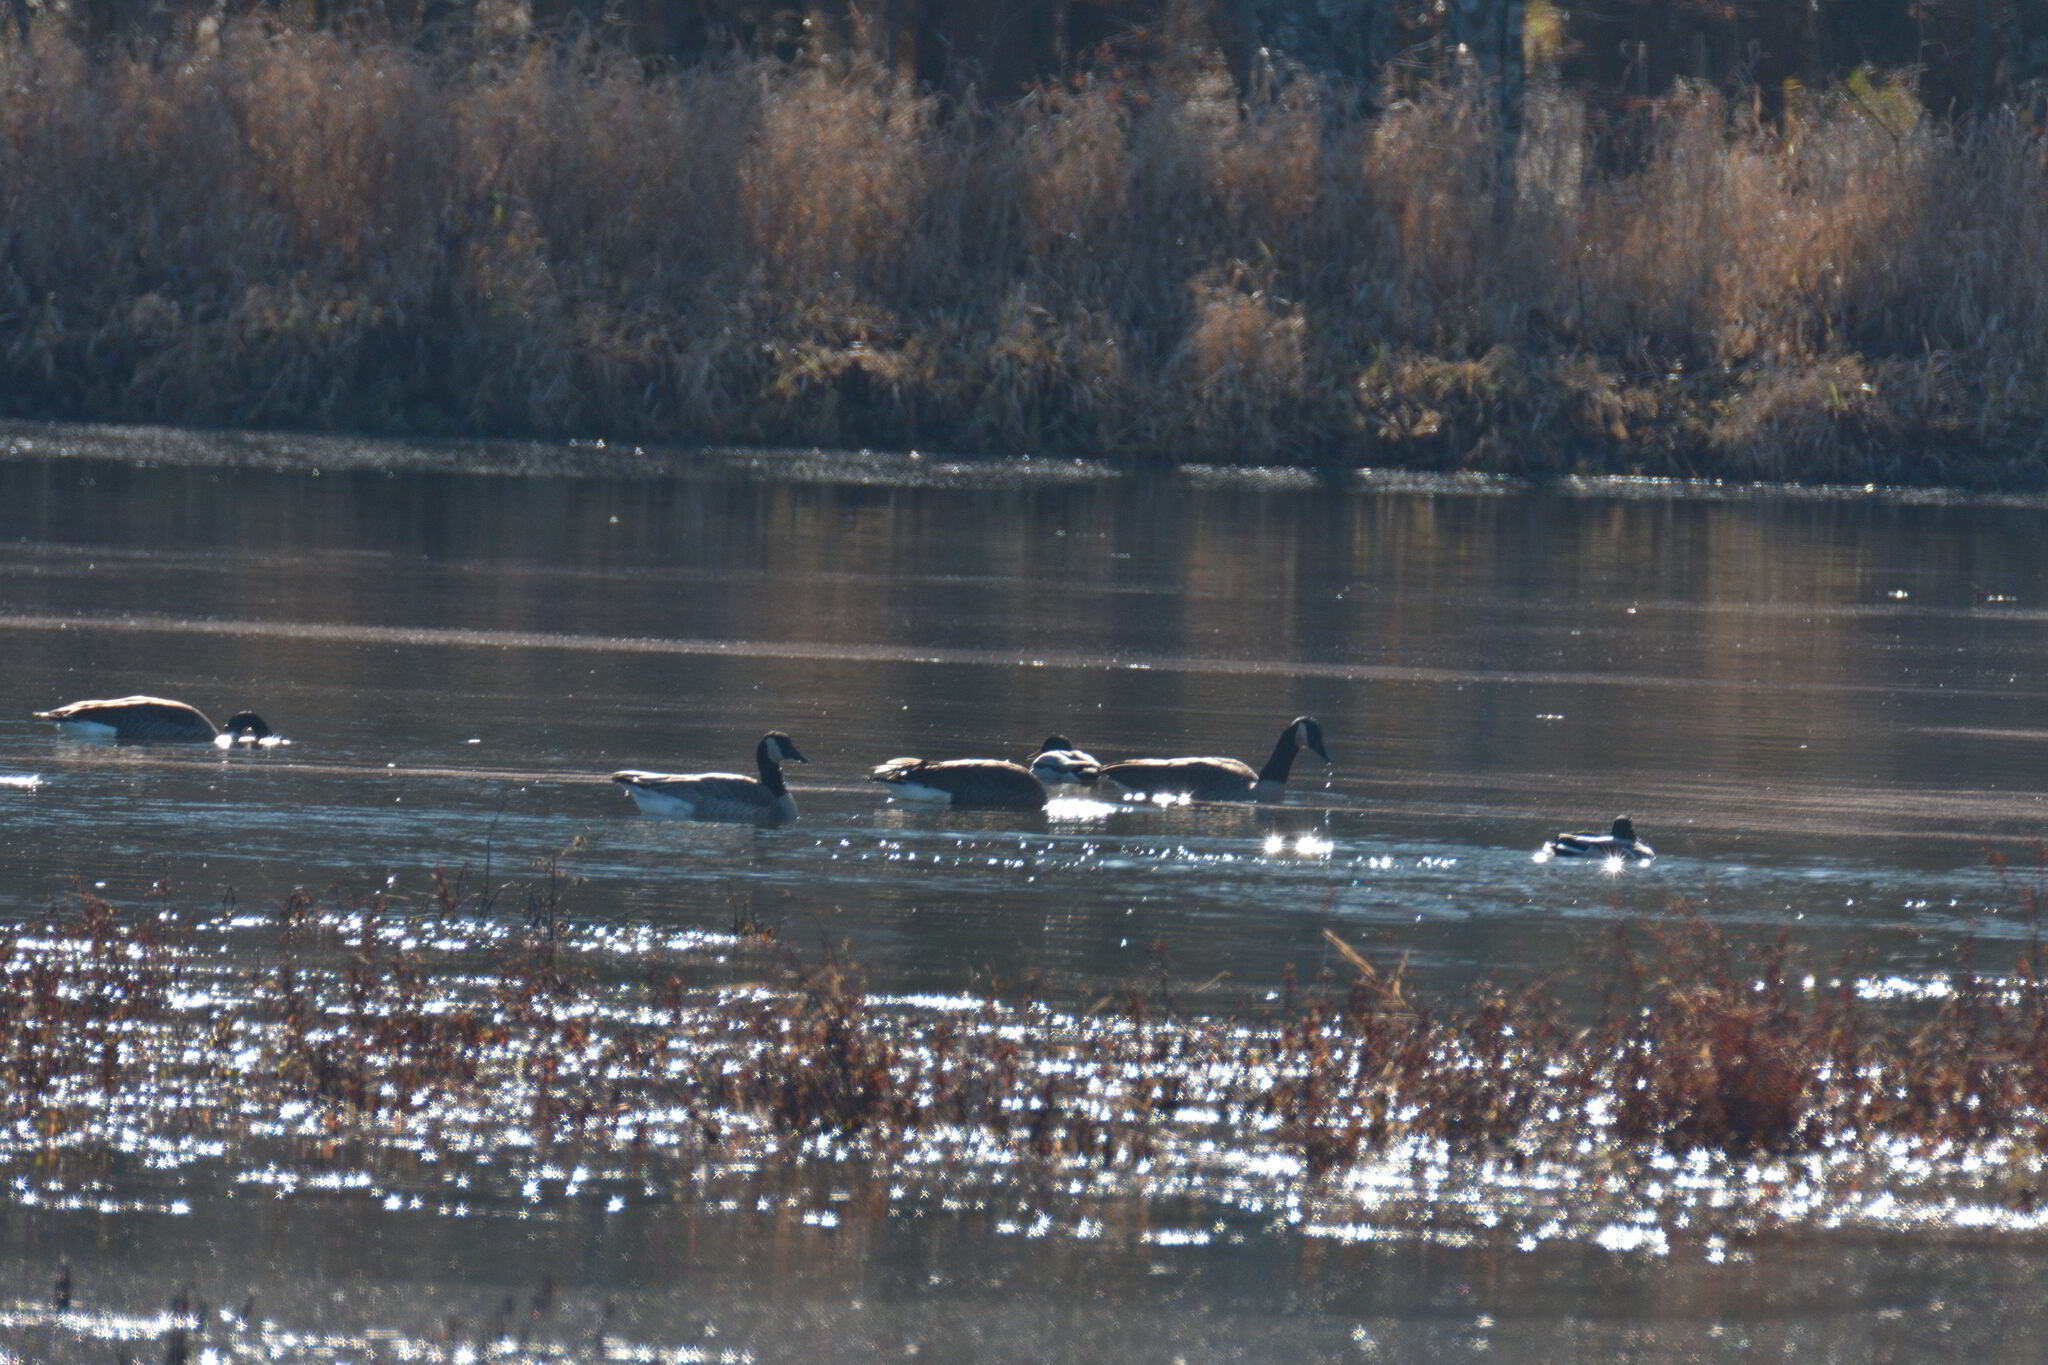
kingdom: Animalia
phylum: Chordata
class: Aves
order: Anseriformes
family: Anatidae
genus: Branta
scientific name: Branta canadensis
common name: Canada goose
